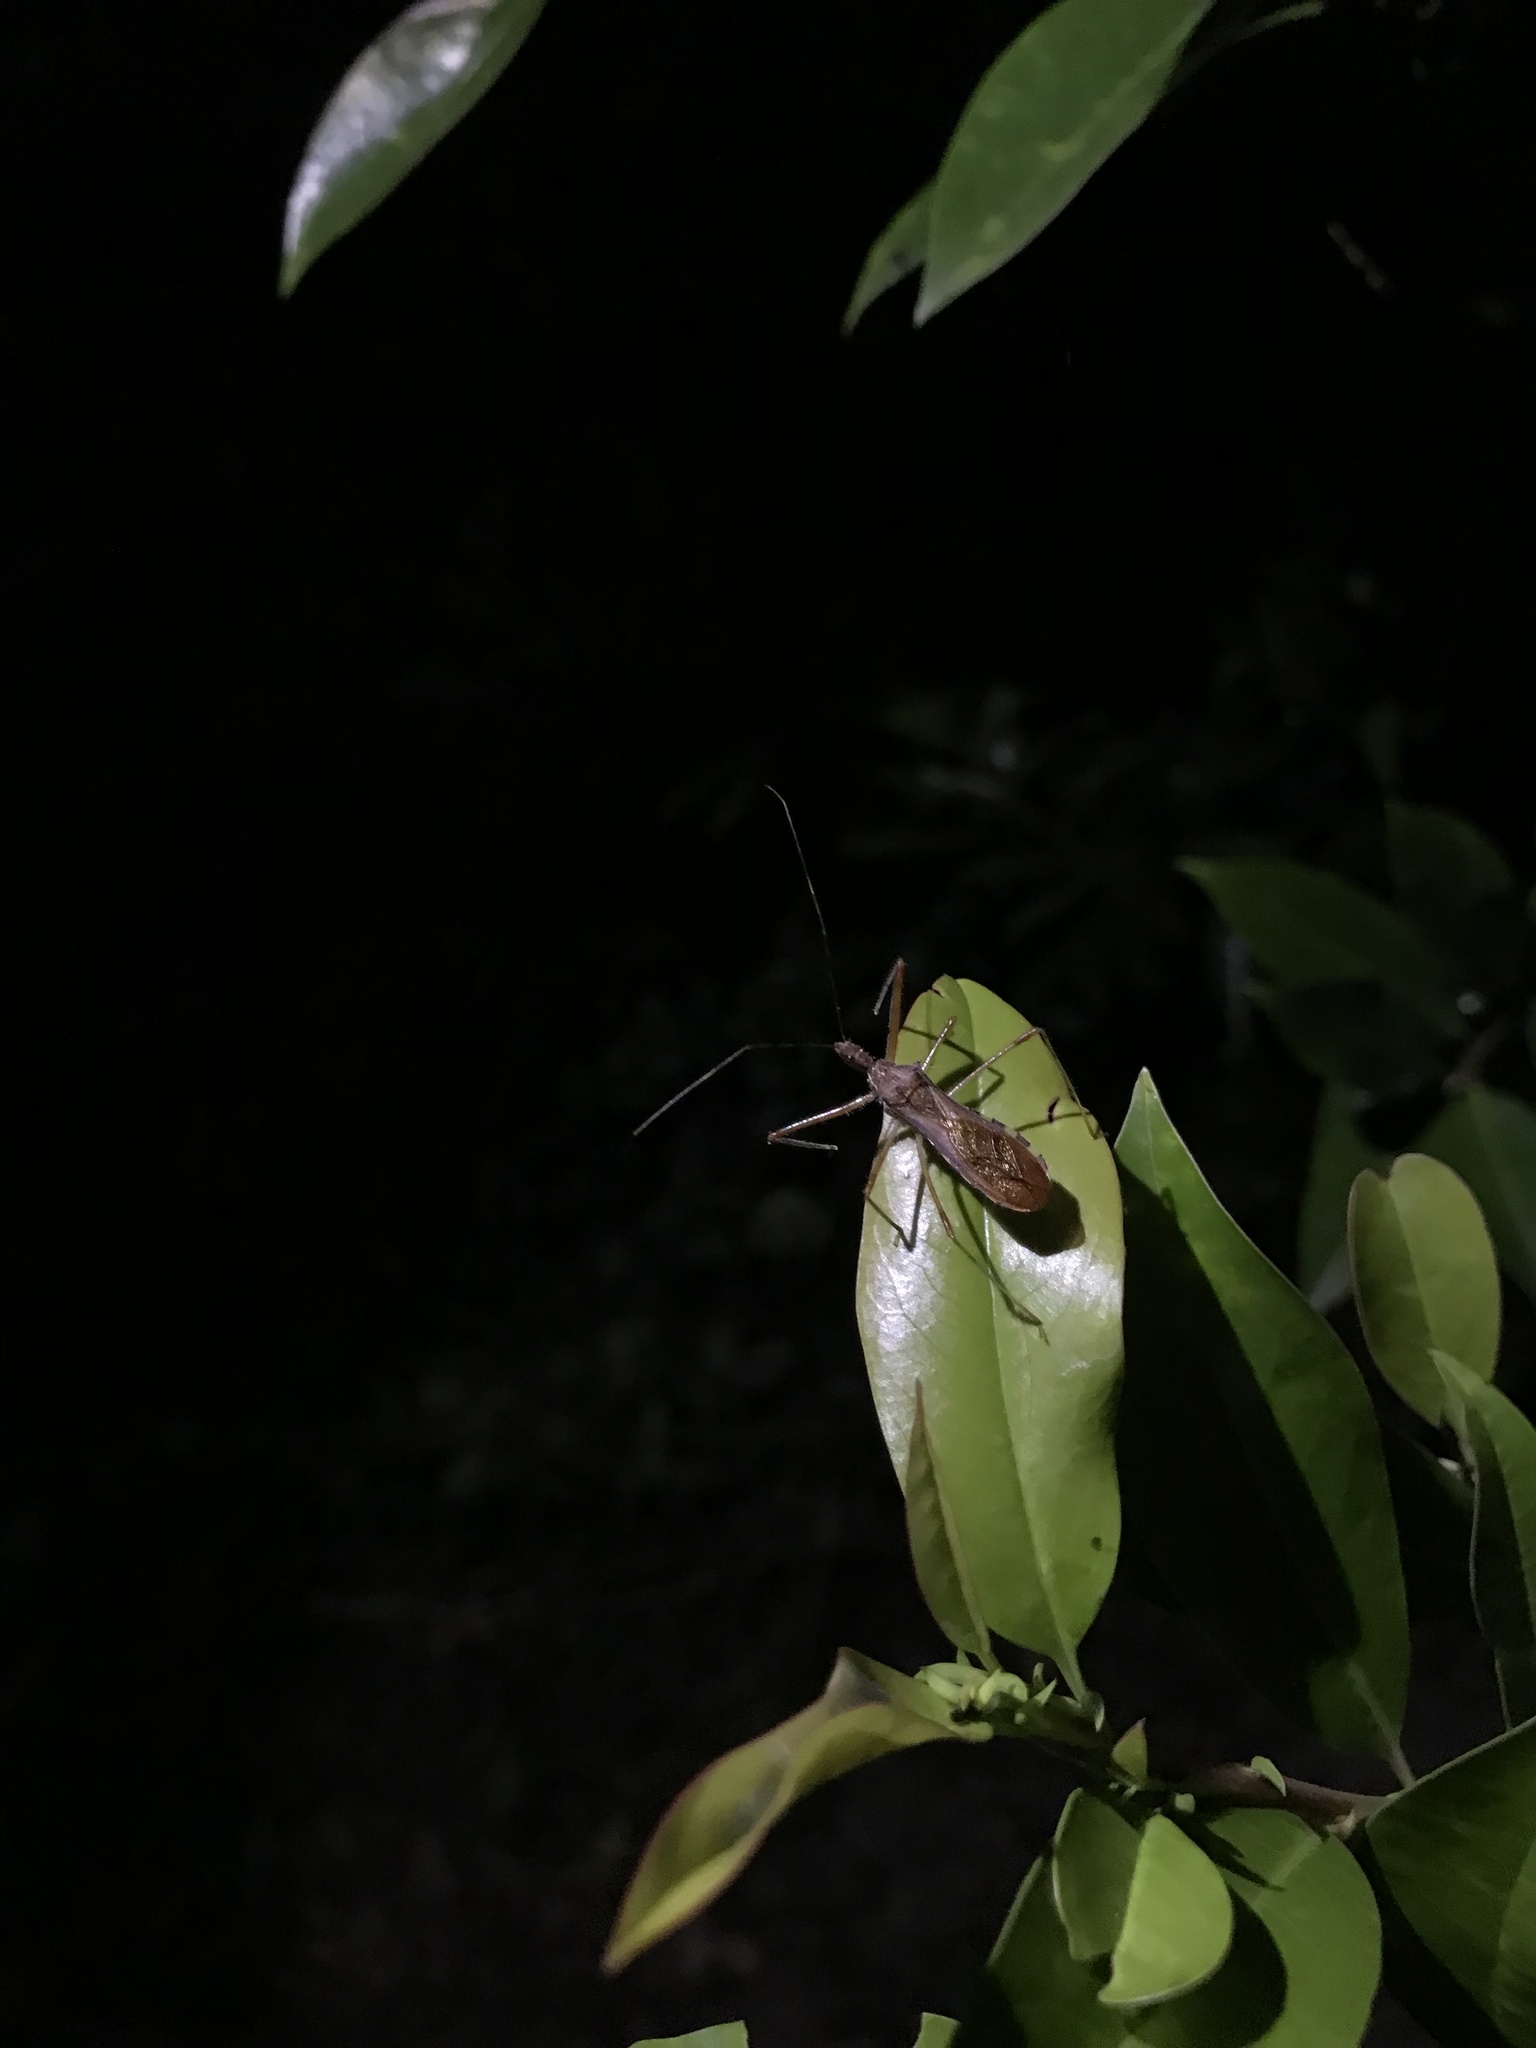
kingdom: Animalia
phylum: Arthropoda
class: Insecta
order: Hemiptera
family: Reduviidae
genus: Rocconota
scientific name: Rocconota annulicornis
